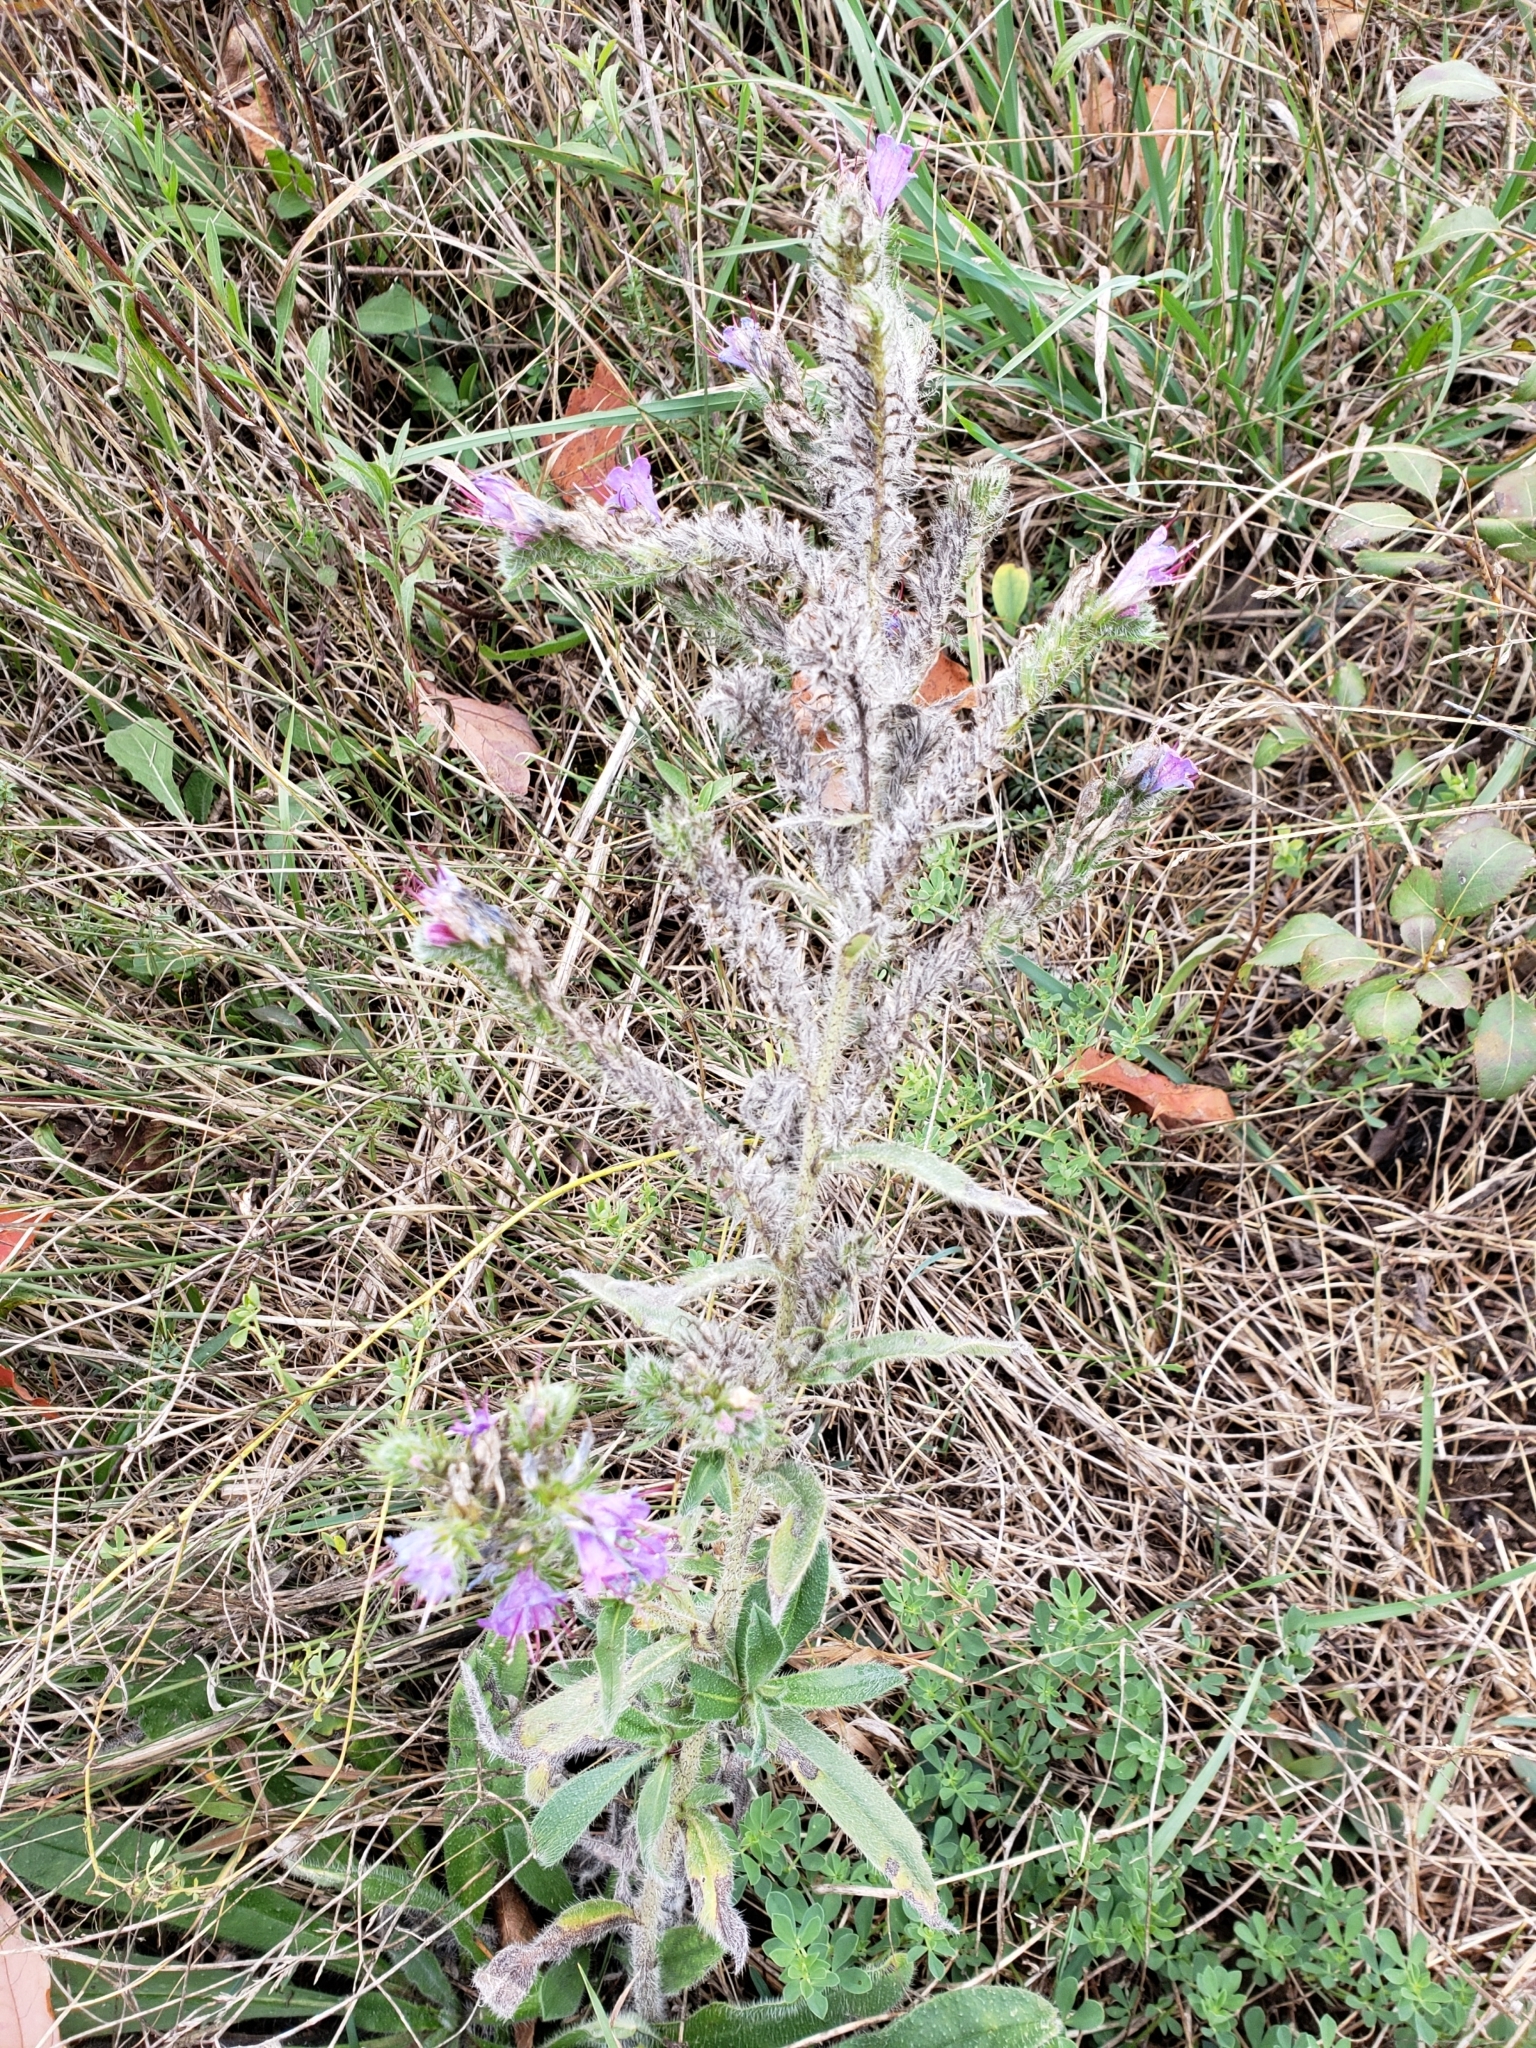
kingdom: Plantae
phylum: Tracheophyta
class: Magnoliopsida
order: Boraginales
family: Boraginaceae
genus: Echium
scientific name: Echium vulgare
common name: Common viper's bugloss
